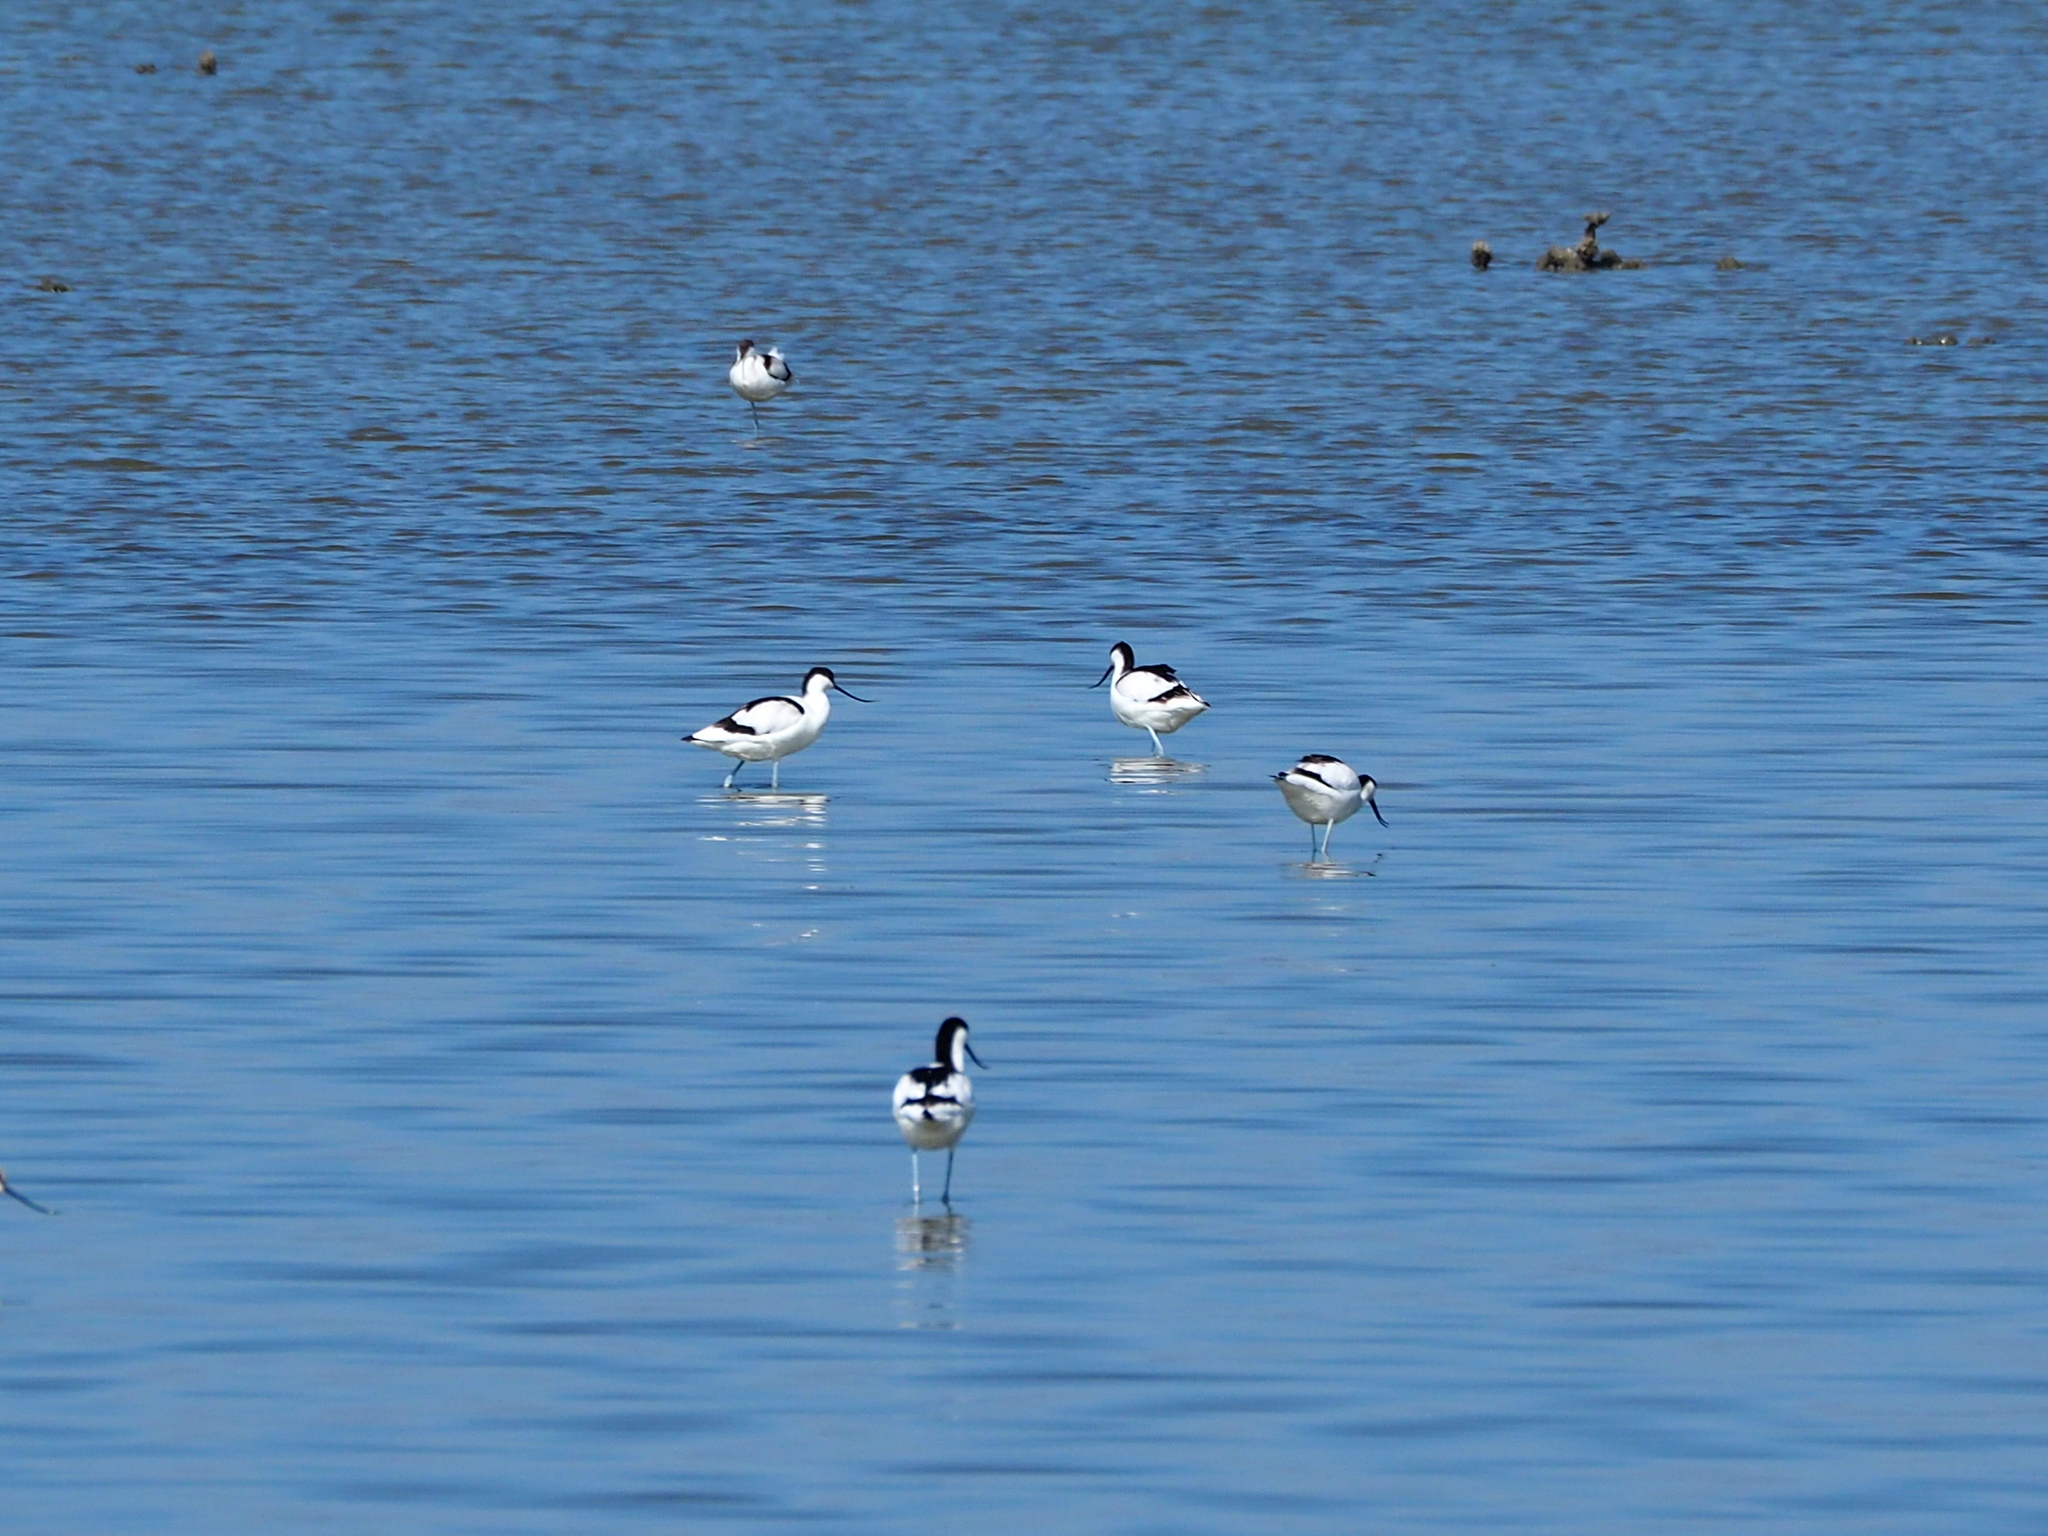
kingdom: Animalia
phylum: Chordata
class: Aves
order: Charadriiformes
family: Recurvirostridae
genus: Recurvirostra
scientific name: Recurvirostra avosetta
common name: Pied avocet
